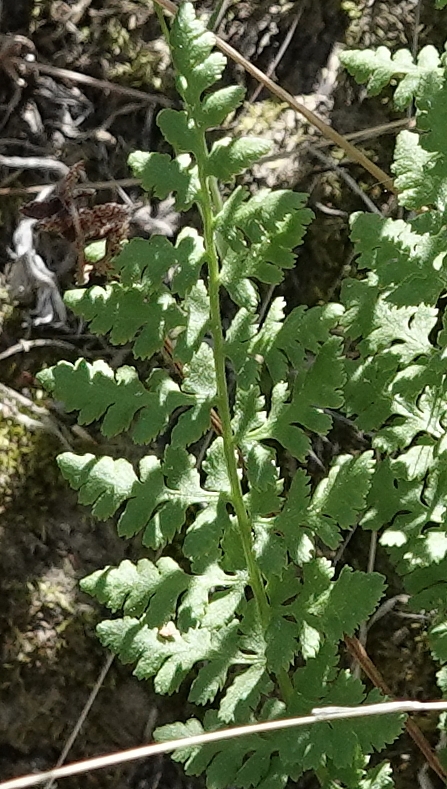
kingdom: Plantae
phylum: Tracheophyta
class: Polypodiopsida
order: Polypodiales
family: Woodsiaceae
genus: Physematium
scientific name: Physematium obtusum
